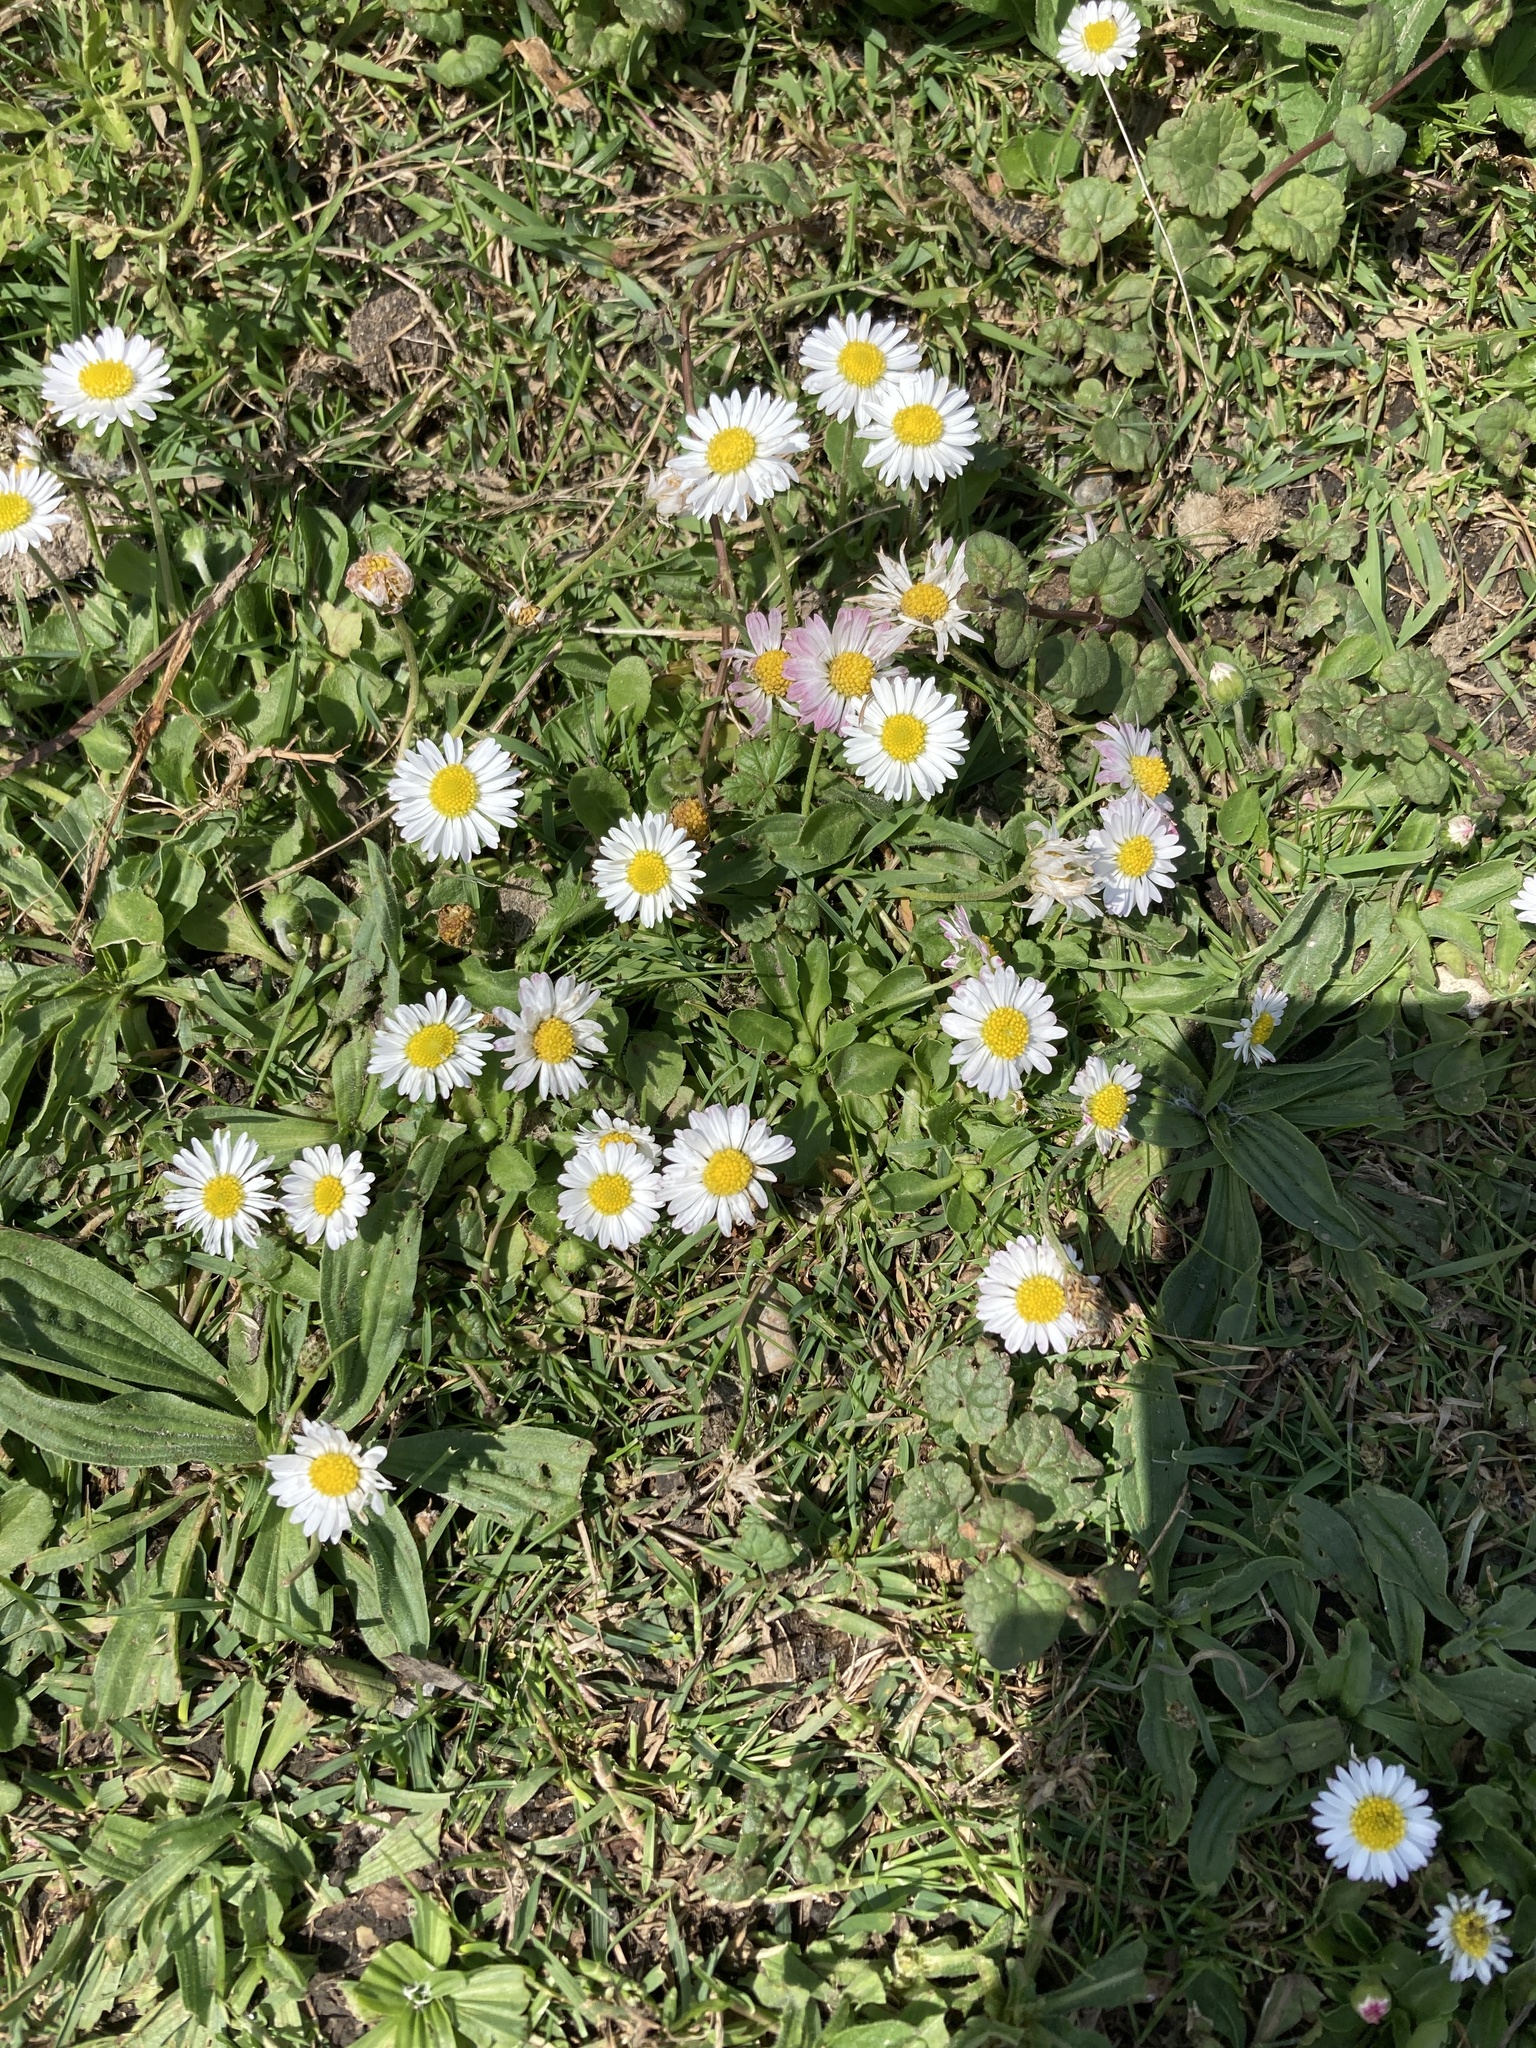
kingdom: Plantae
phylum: Tracheophyta
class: Magnoliopsida
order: Asterales
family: Asteraceae
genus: Bellis
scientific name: Bellis perennis
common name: Lawndaisy
